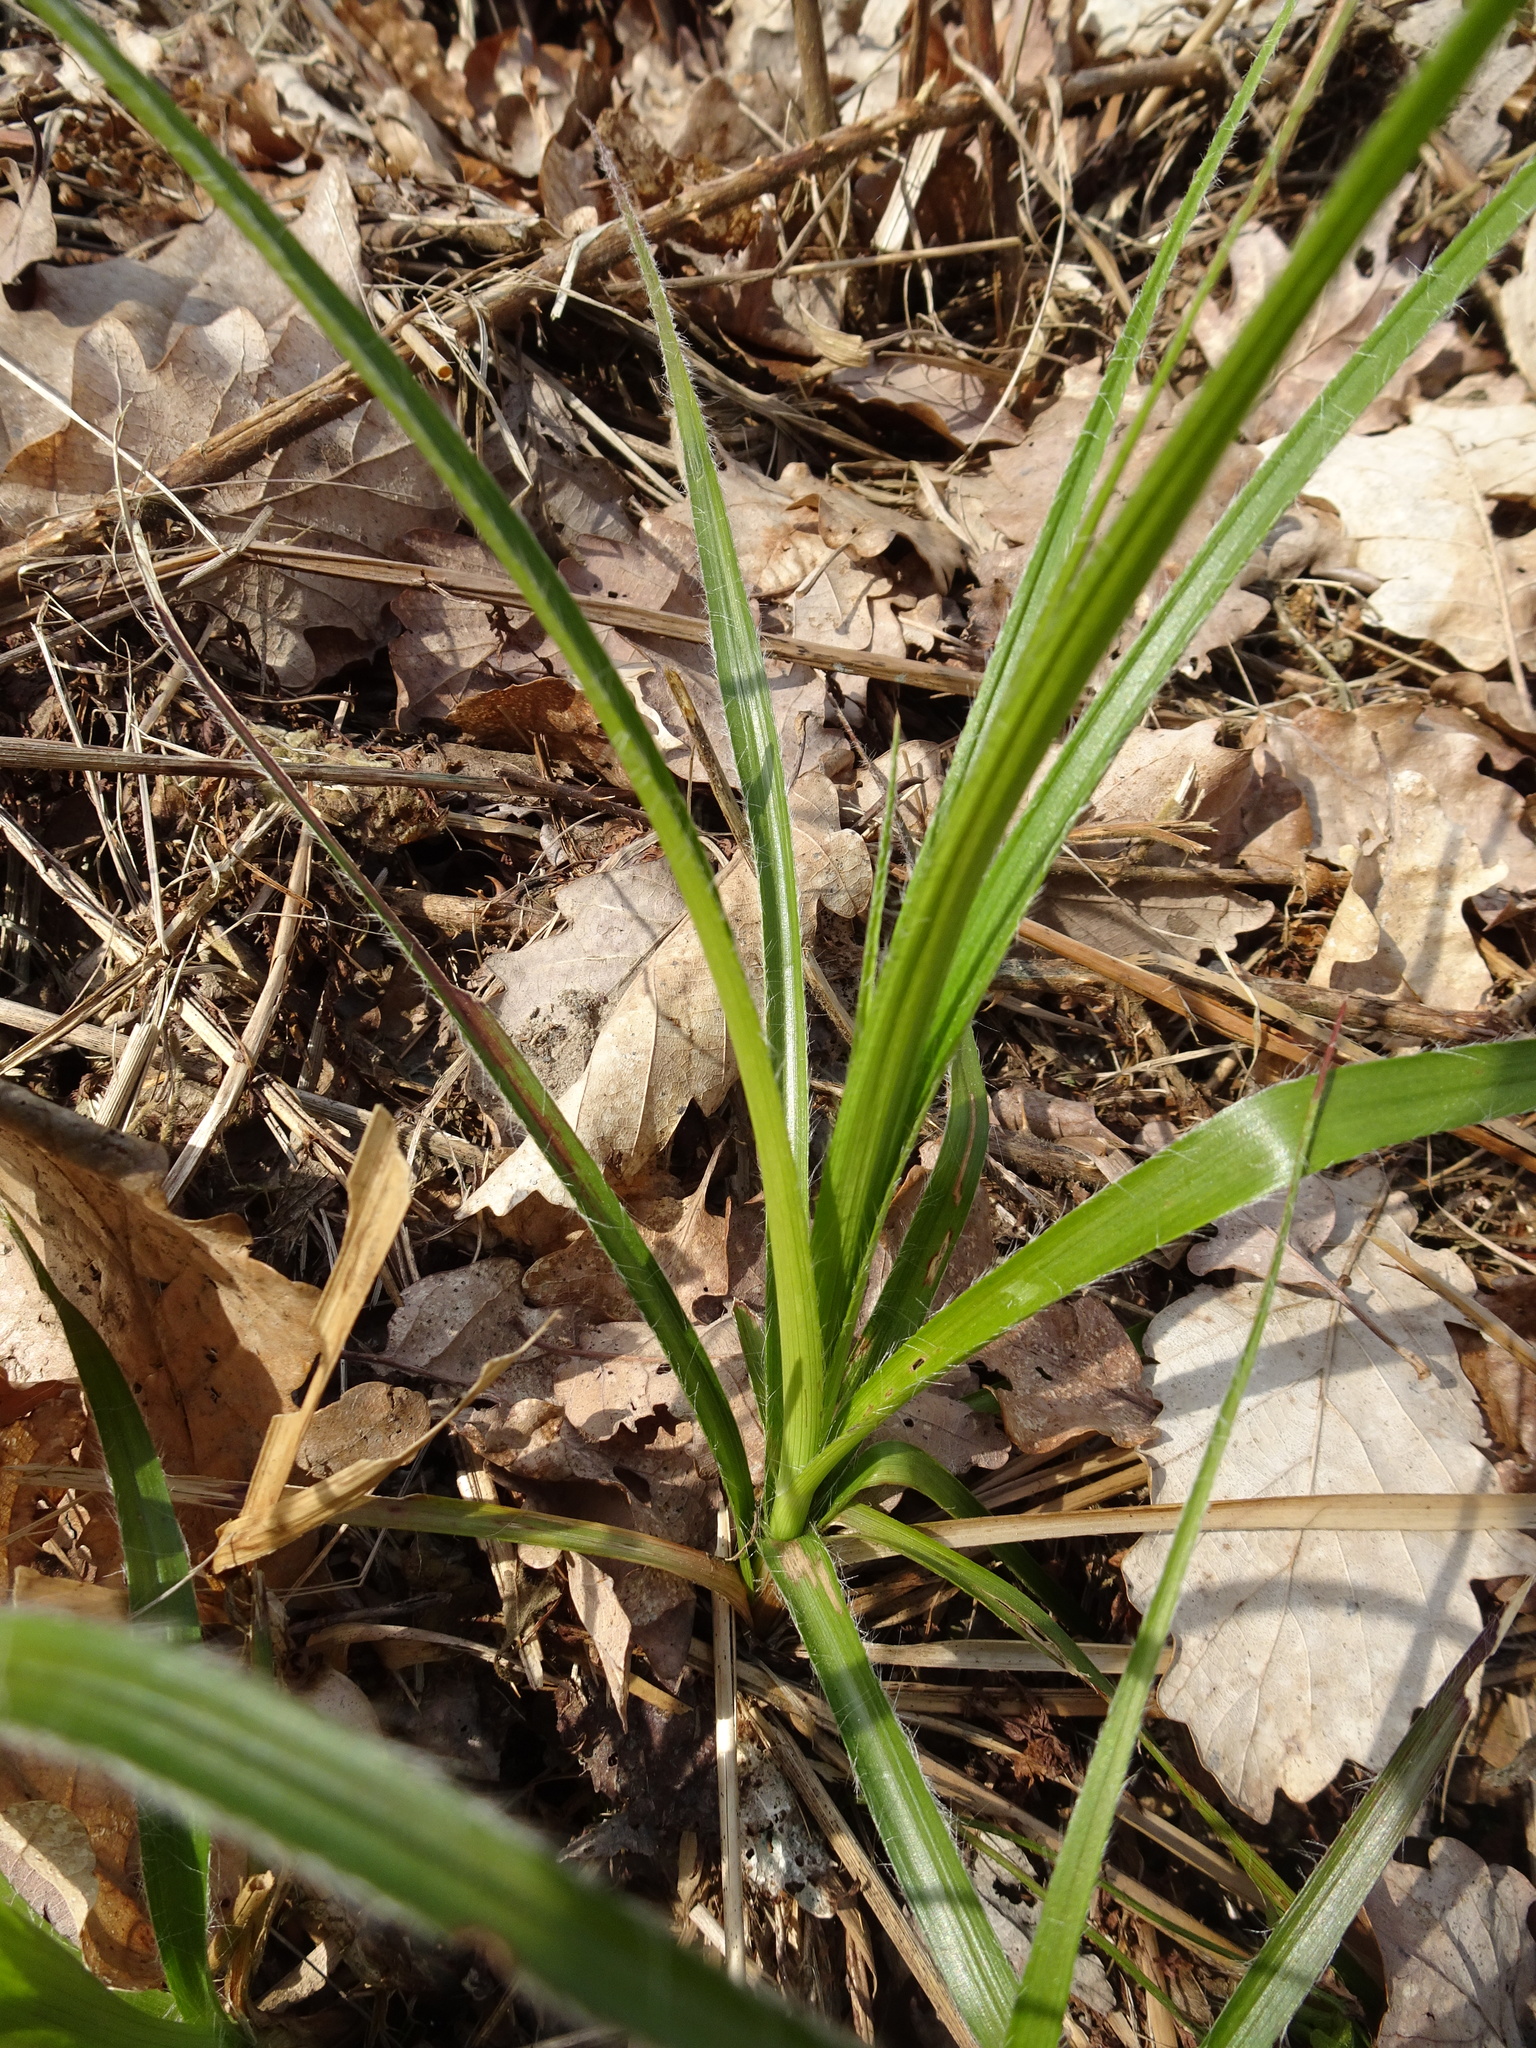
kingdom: Plantae
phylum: Tracheophyta
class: Liliopsida
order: Poales
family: Juncaceae
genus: Luzula
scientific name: Luzula pilosa
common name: Hairy wood-rush
